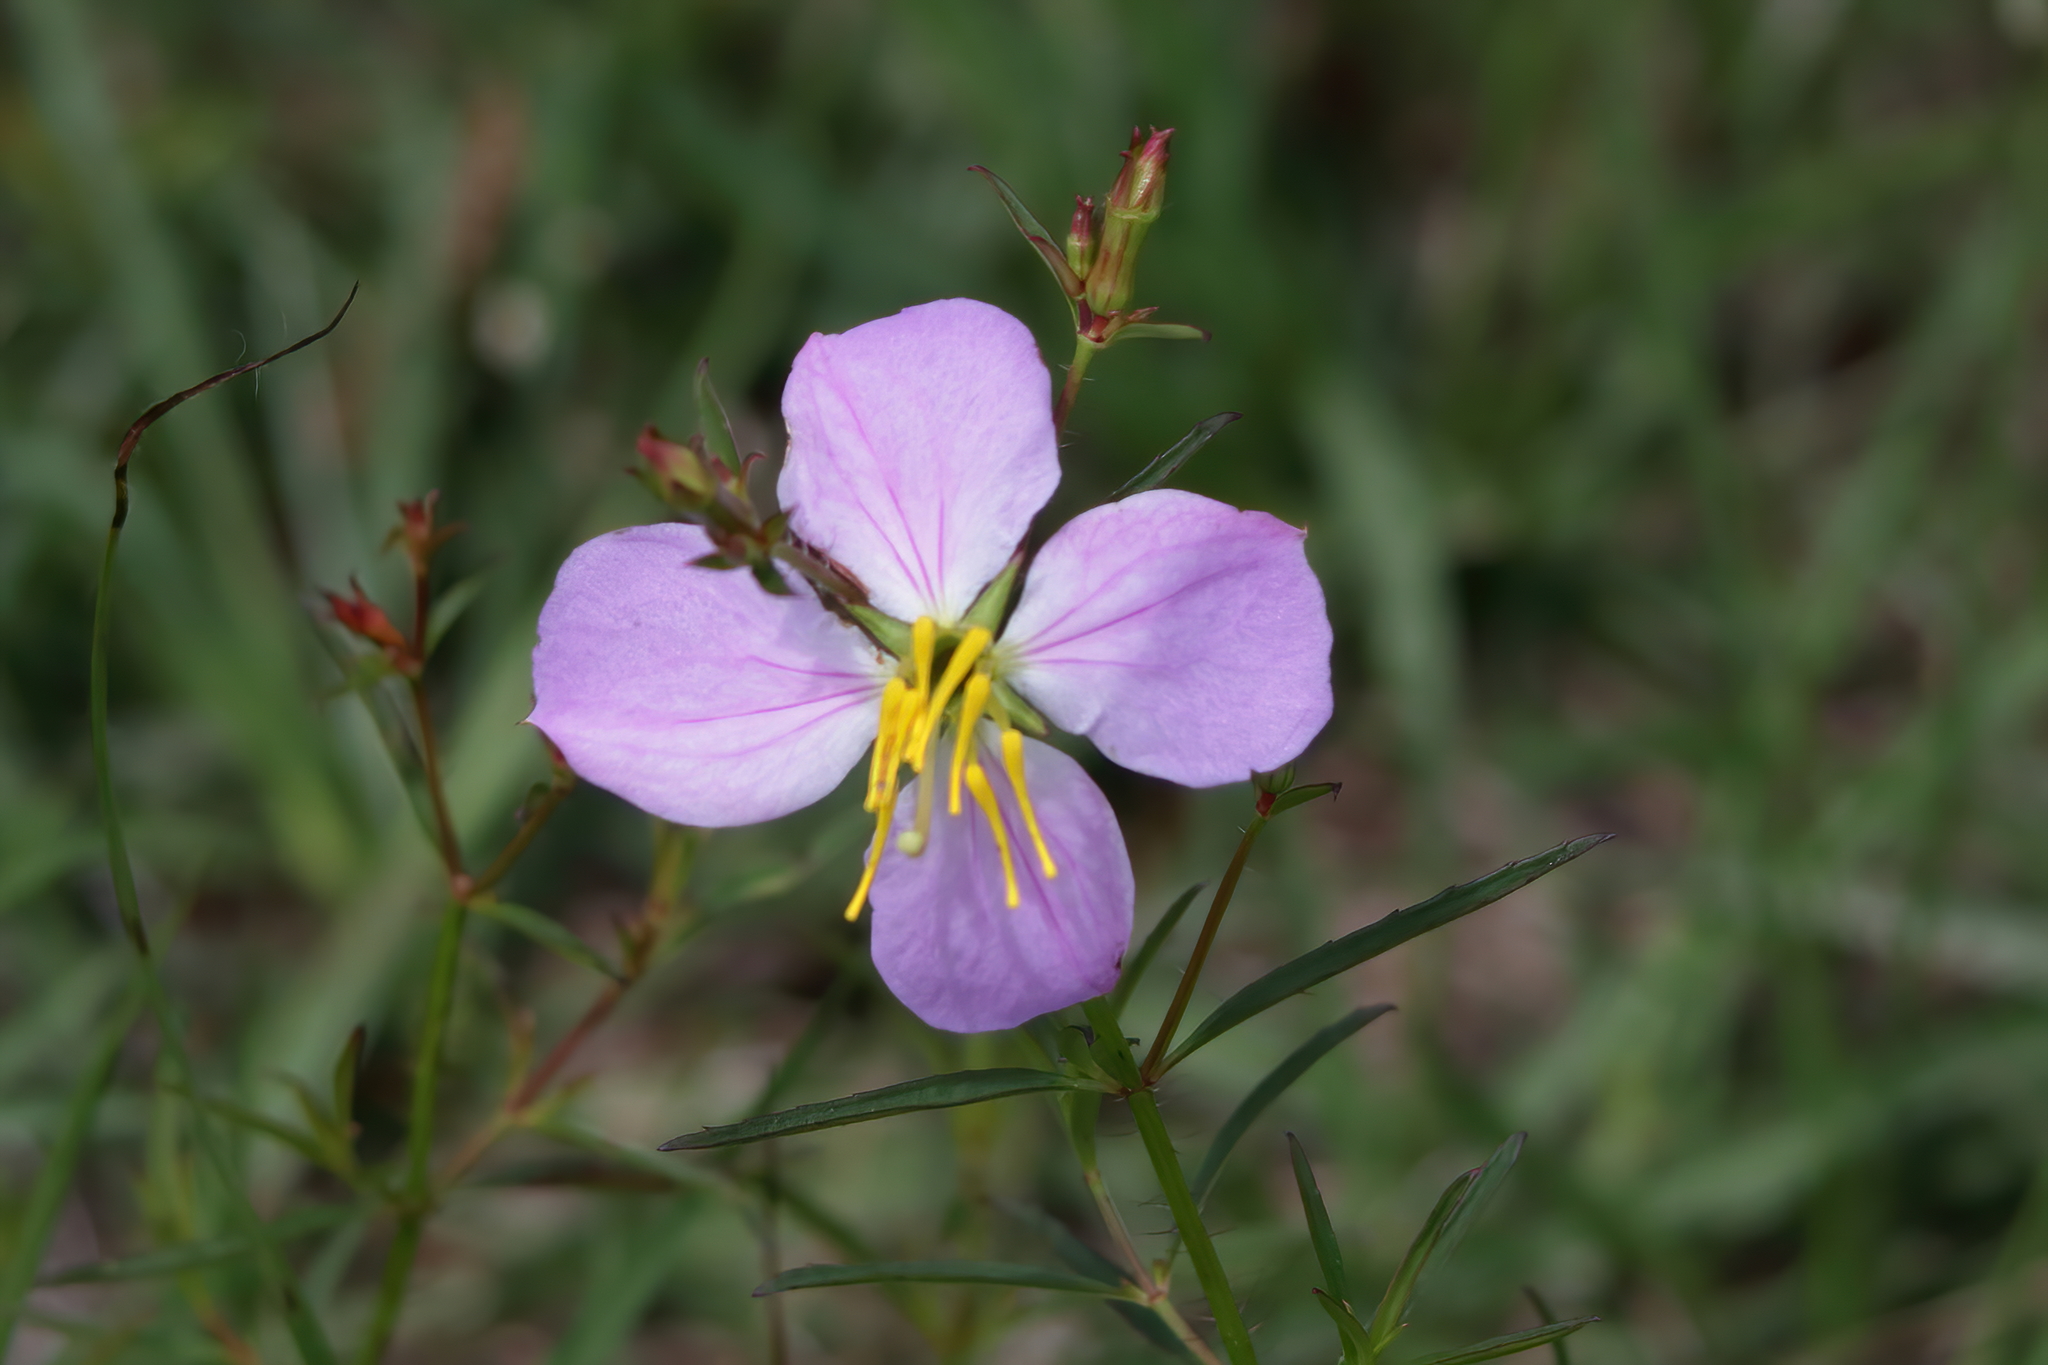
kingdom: Plantae
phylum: Tracheophyta
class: Magnoliopsida
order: Myrtales
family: Melastomataceae
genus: Rhexia
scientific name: Rhexia mariana
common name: Dull meadow-pitcher
